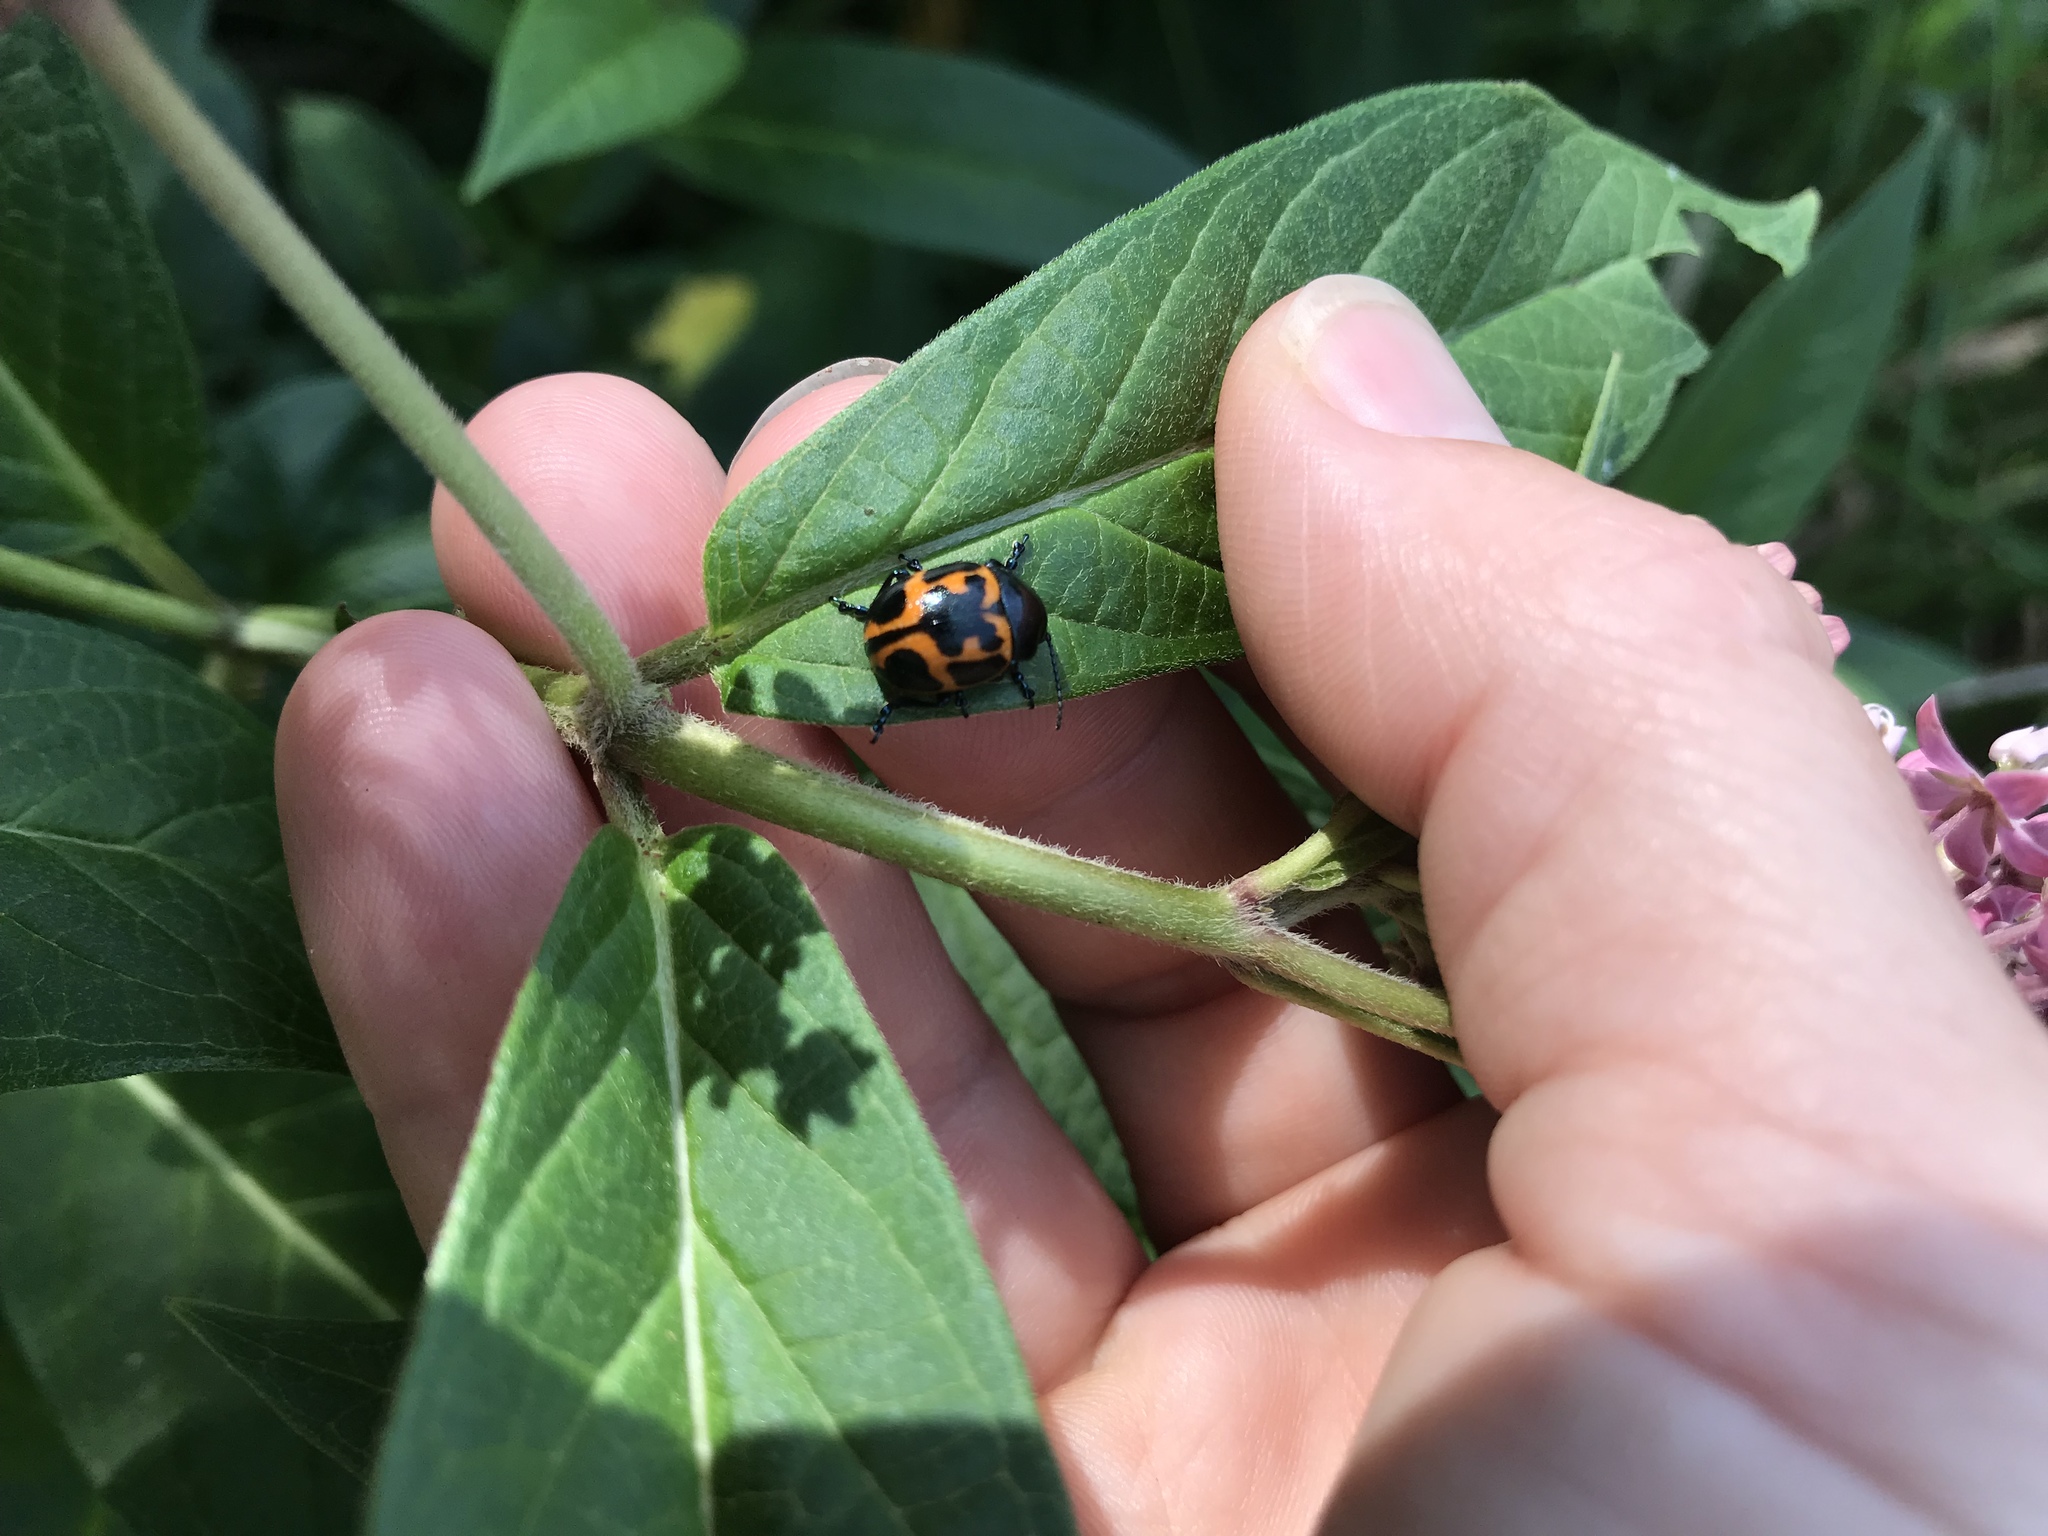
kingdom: Animalia
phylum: Arthropoda
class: Insecta
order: Coleoptera
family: Chrysomelidae
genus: Labidomera
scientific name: Labidomera clivicollis
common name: Swamp milkweed leaf beetle
